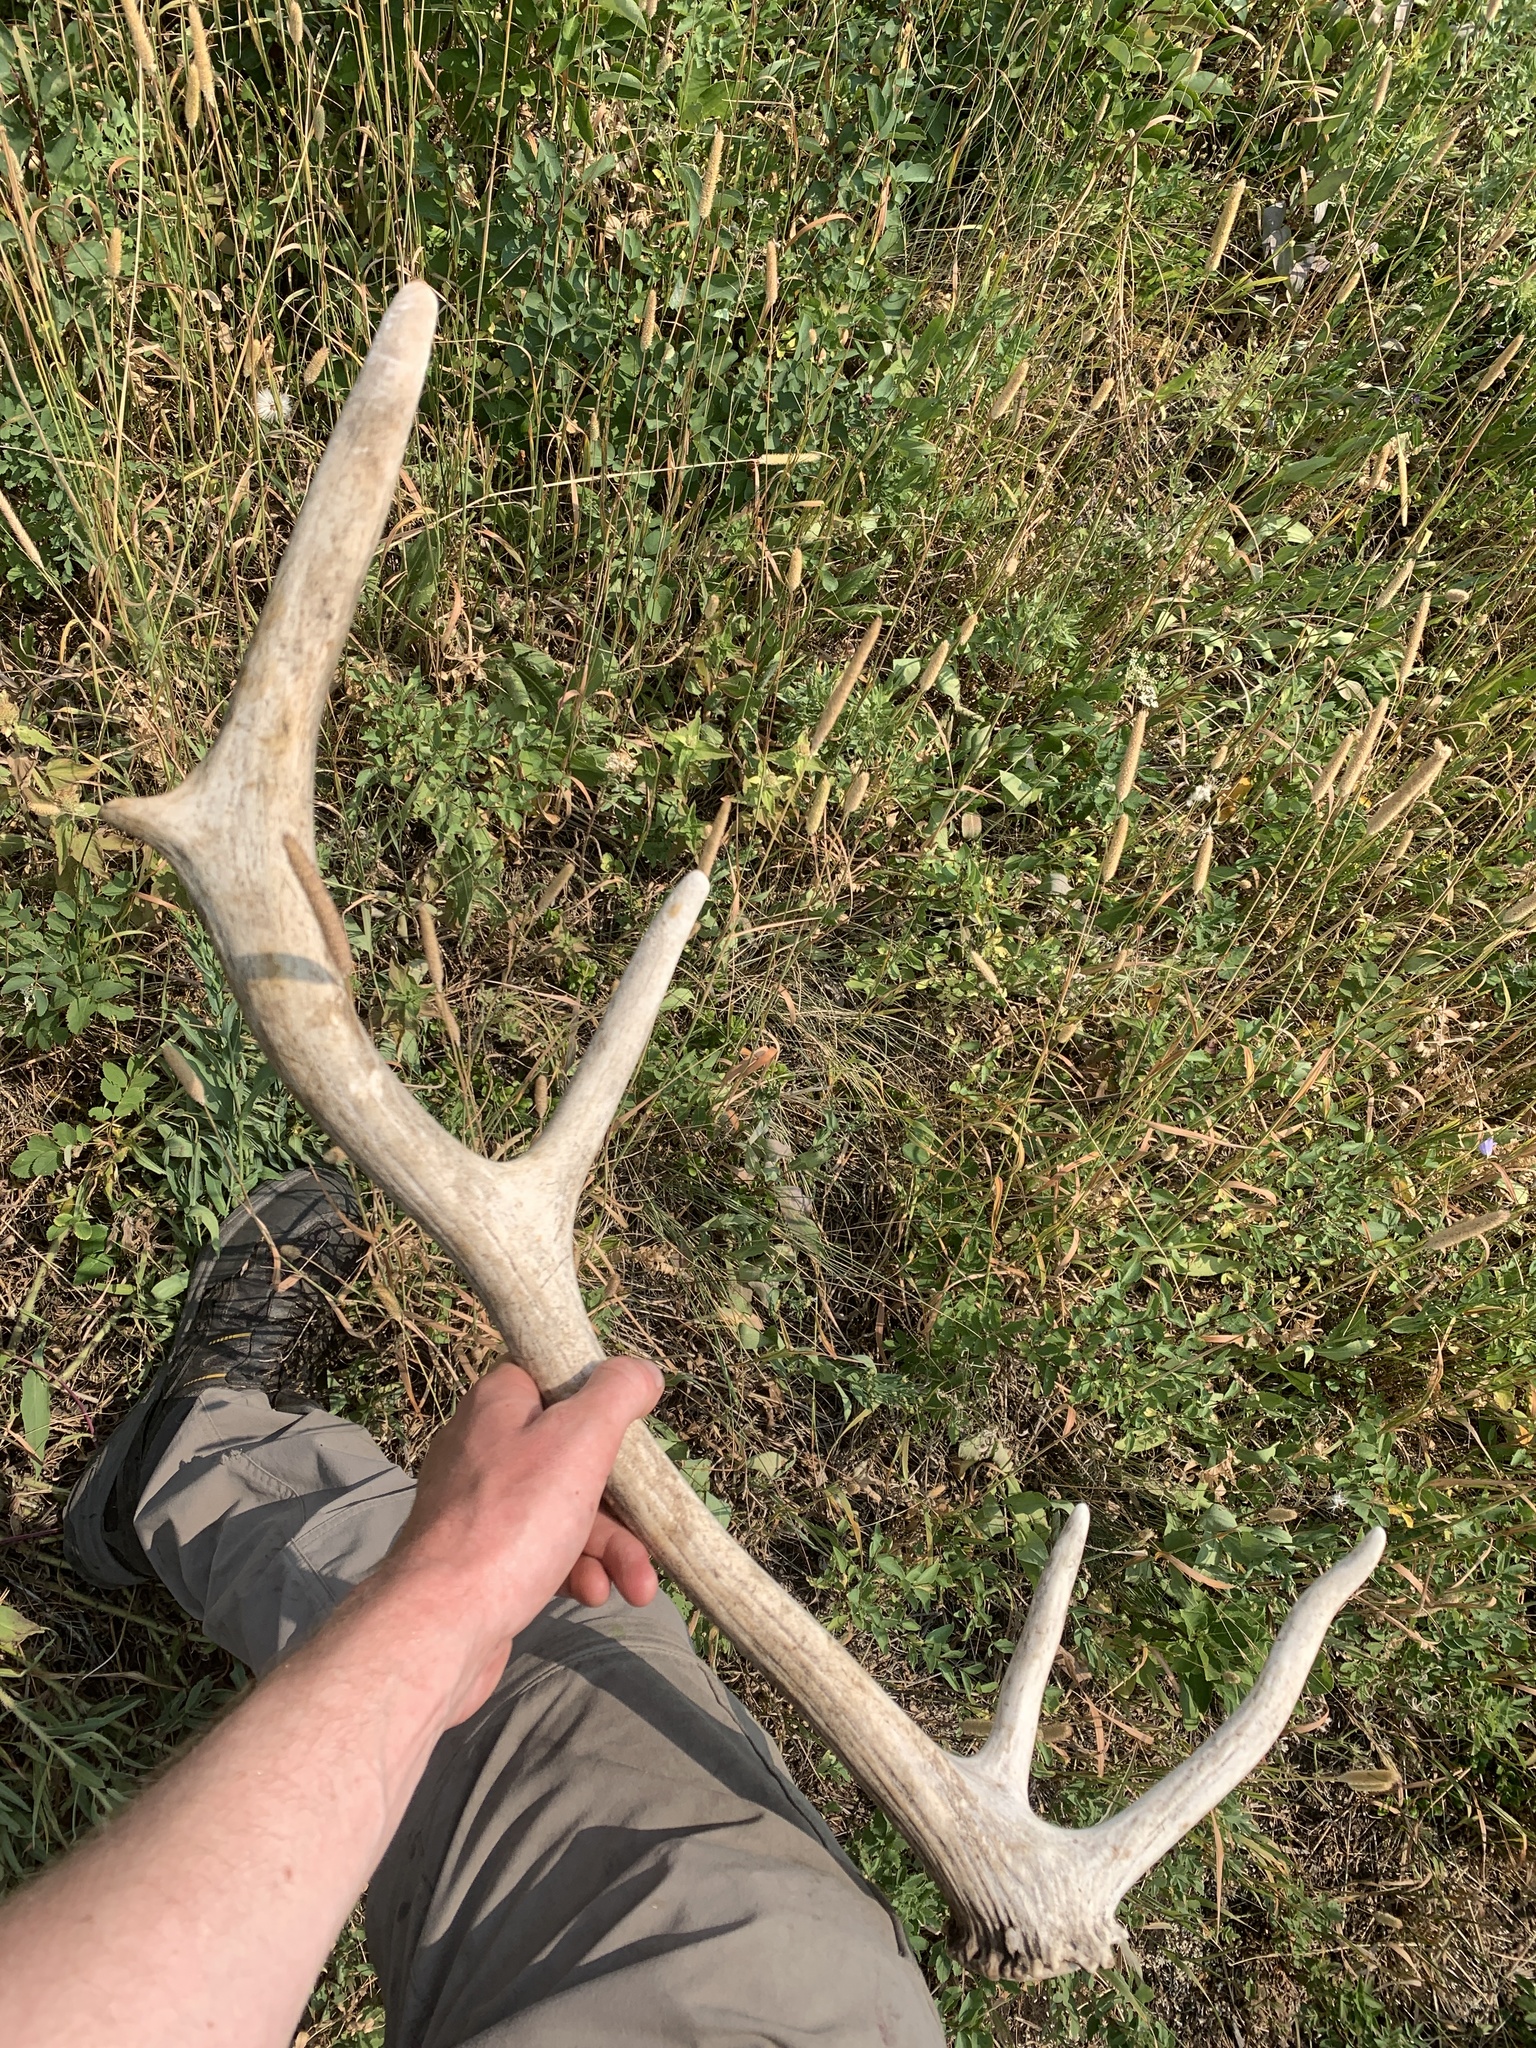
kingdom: Animalia
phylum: Chordata
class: Mammalia
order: Artiodactyla
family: Cervidae
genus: Cervus
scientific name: Cervus elaphus
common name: Red deer
